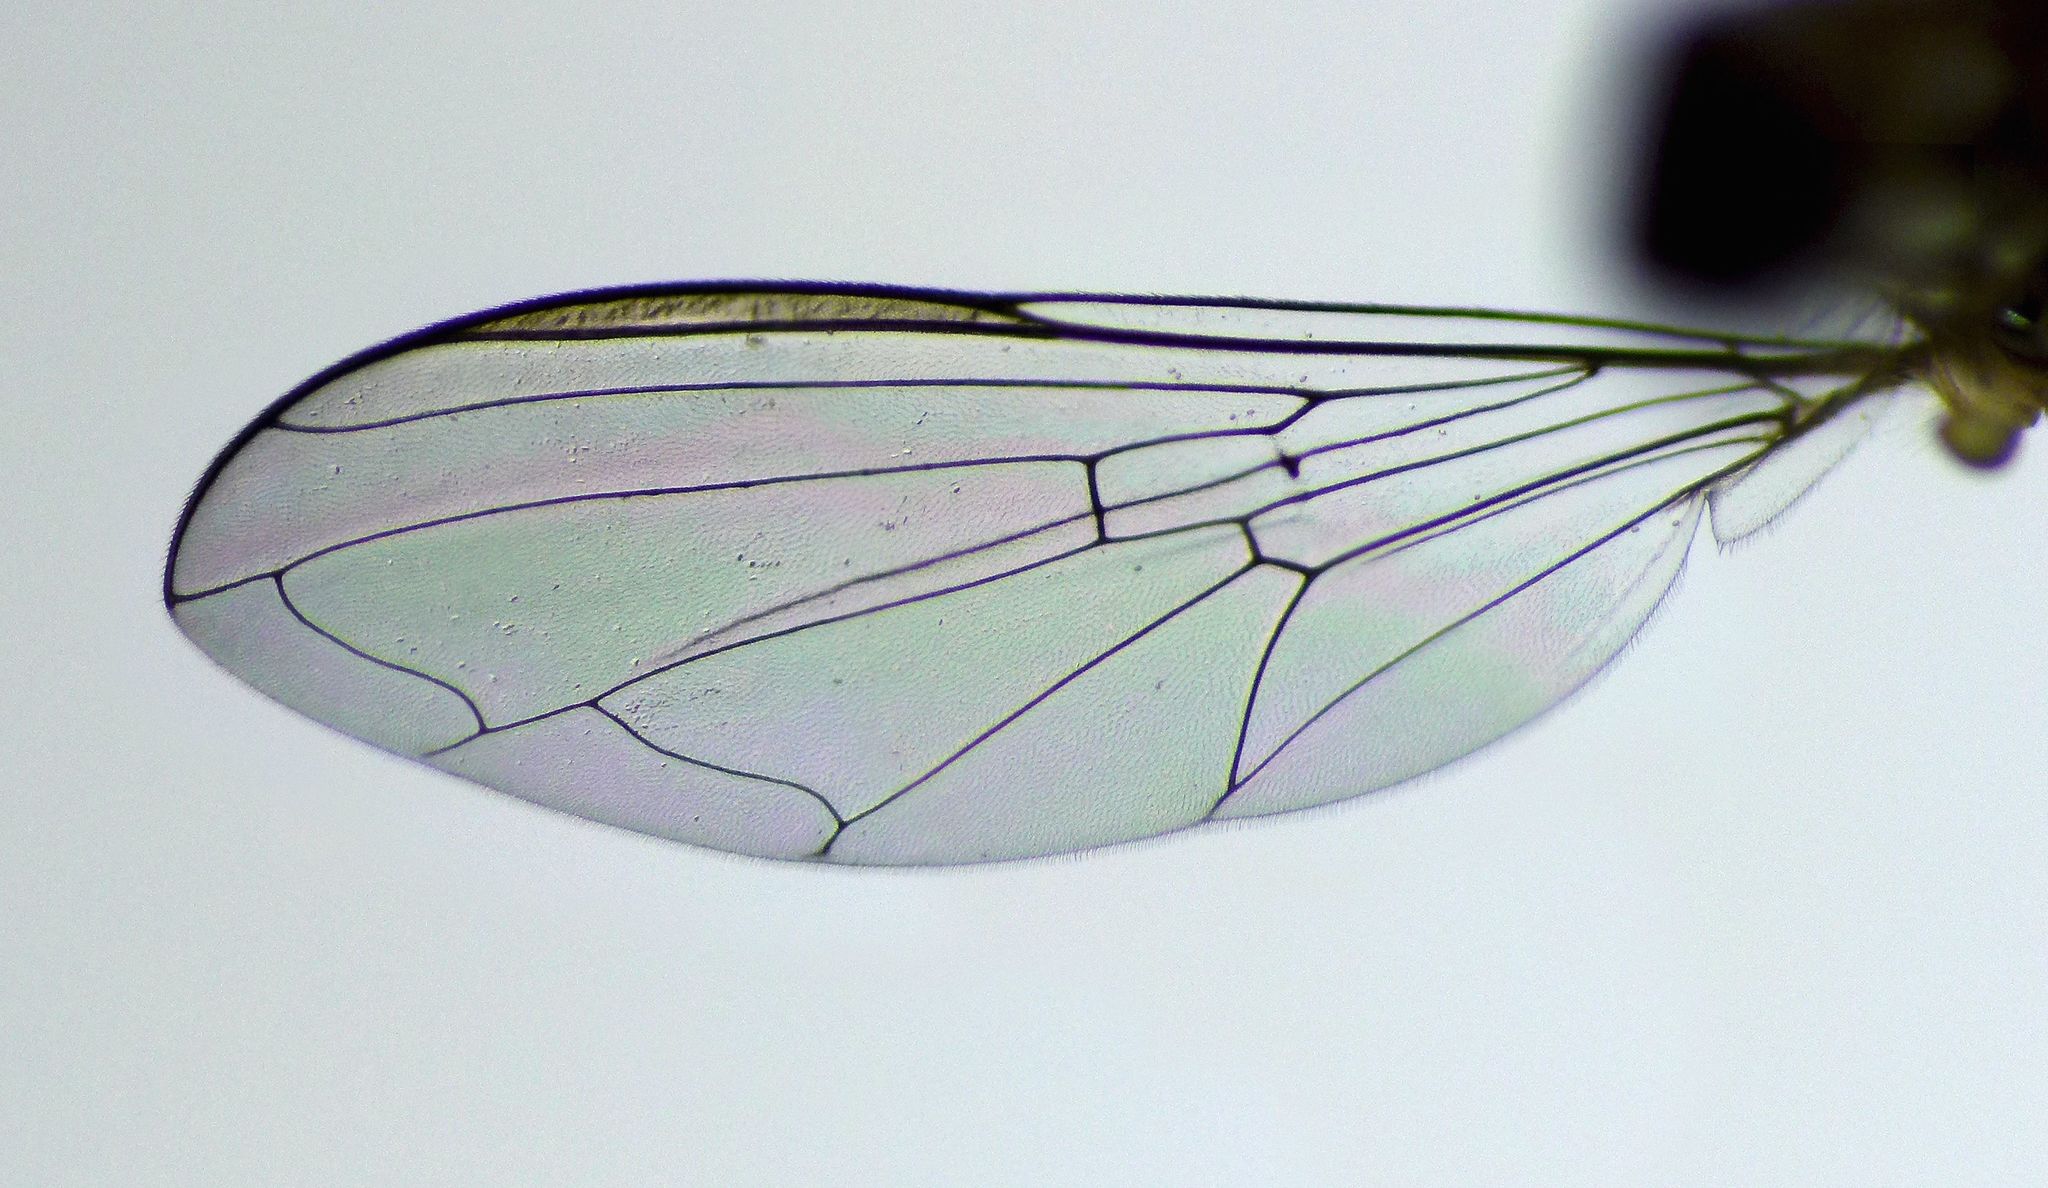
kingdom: Animalia
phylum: Arthropoda
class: Insecta
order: Diptera
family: Syrphidae
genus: Allograpta
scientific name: Allograpta hollowayae
